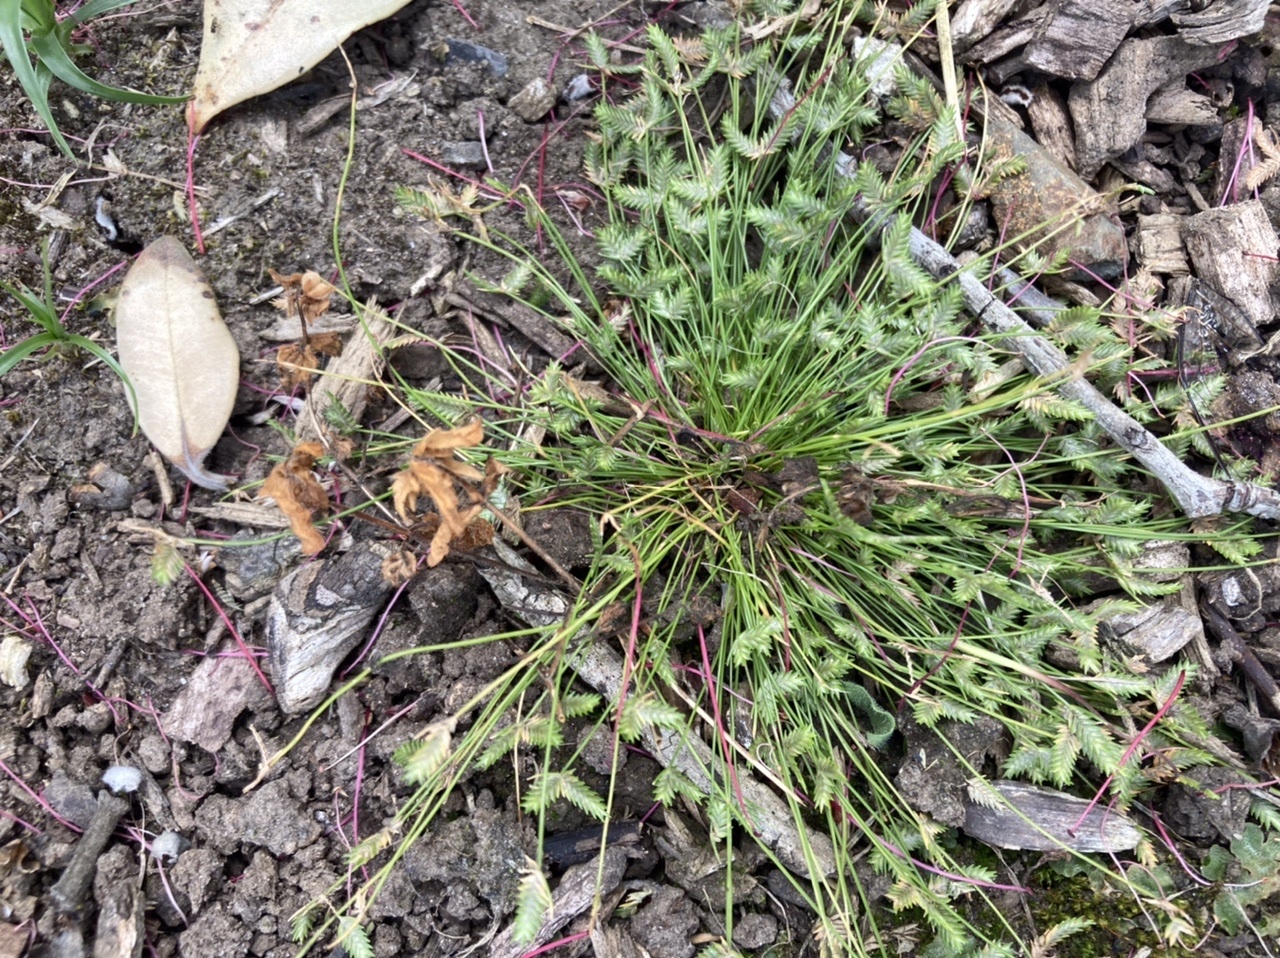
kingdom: Plantae
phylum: Tracheophyta
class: Liliopsida
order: Poales
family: Cyperaceae
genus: Isolepis
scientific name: Isolepis levynsiana
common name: Sedge
